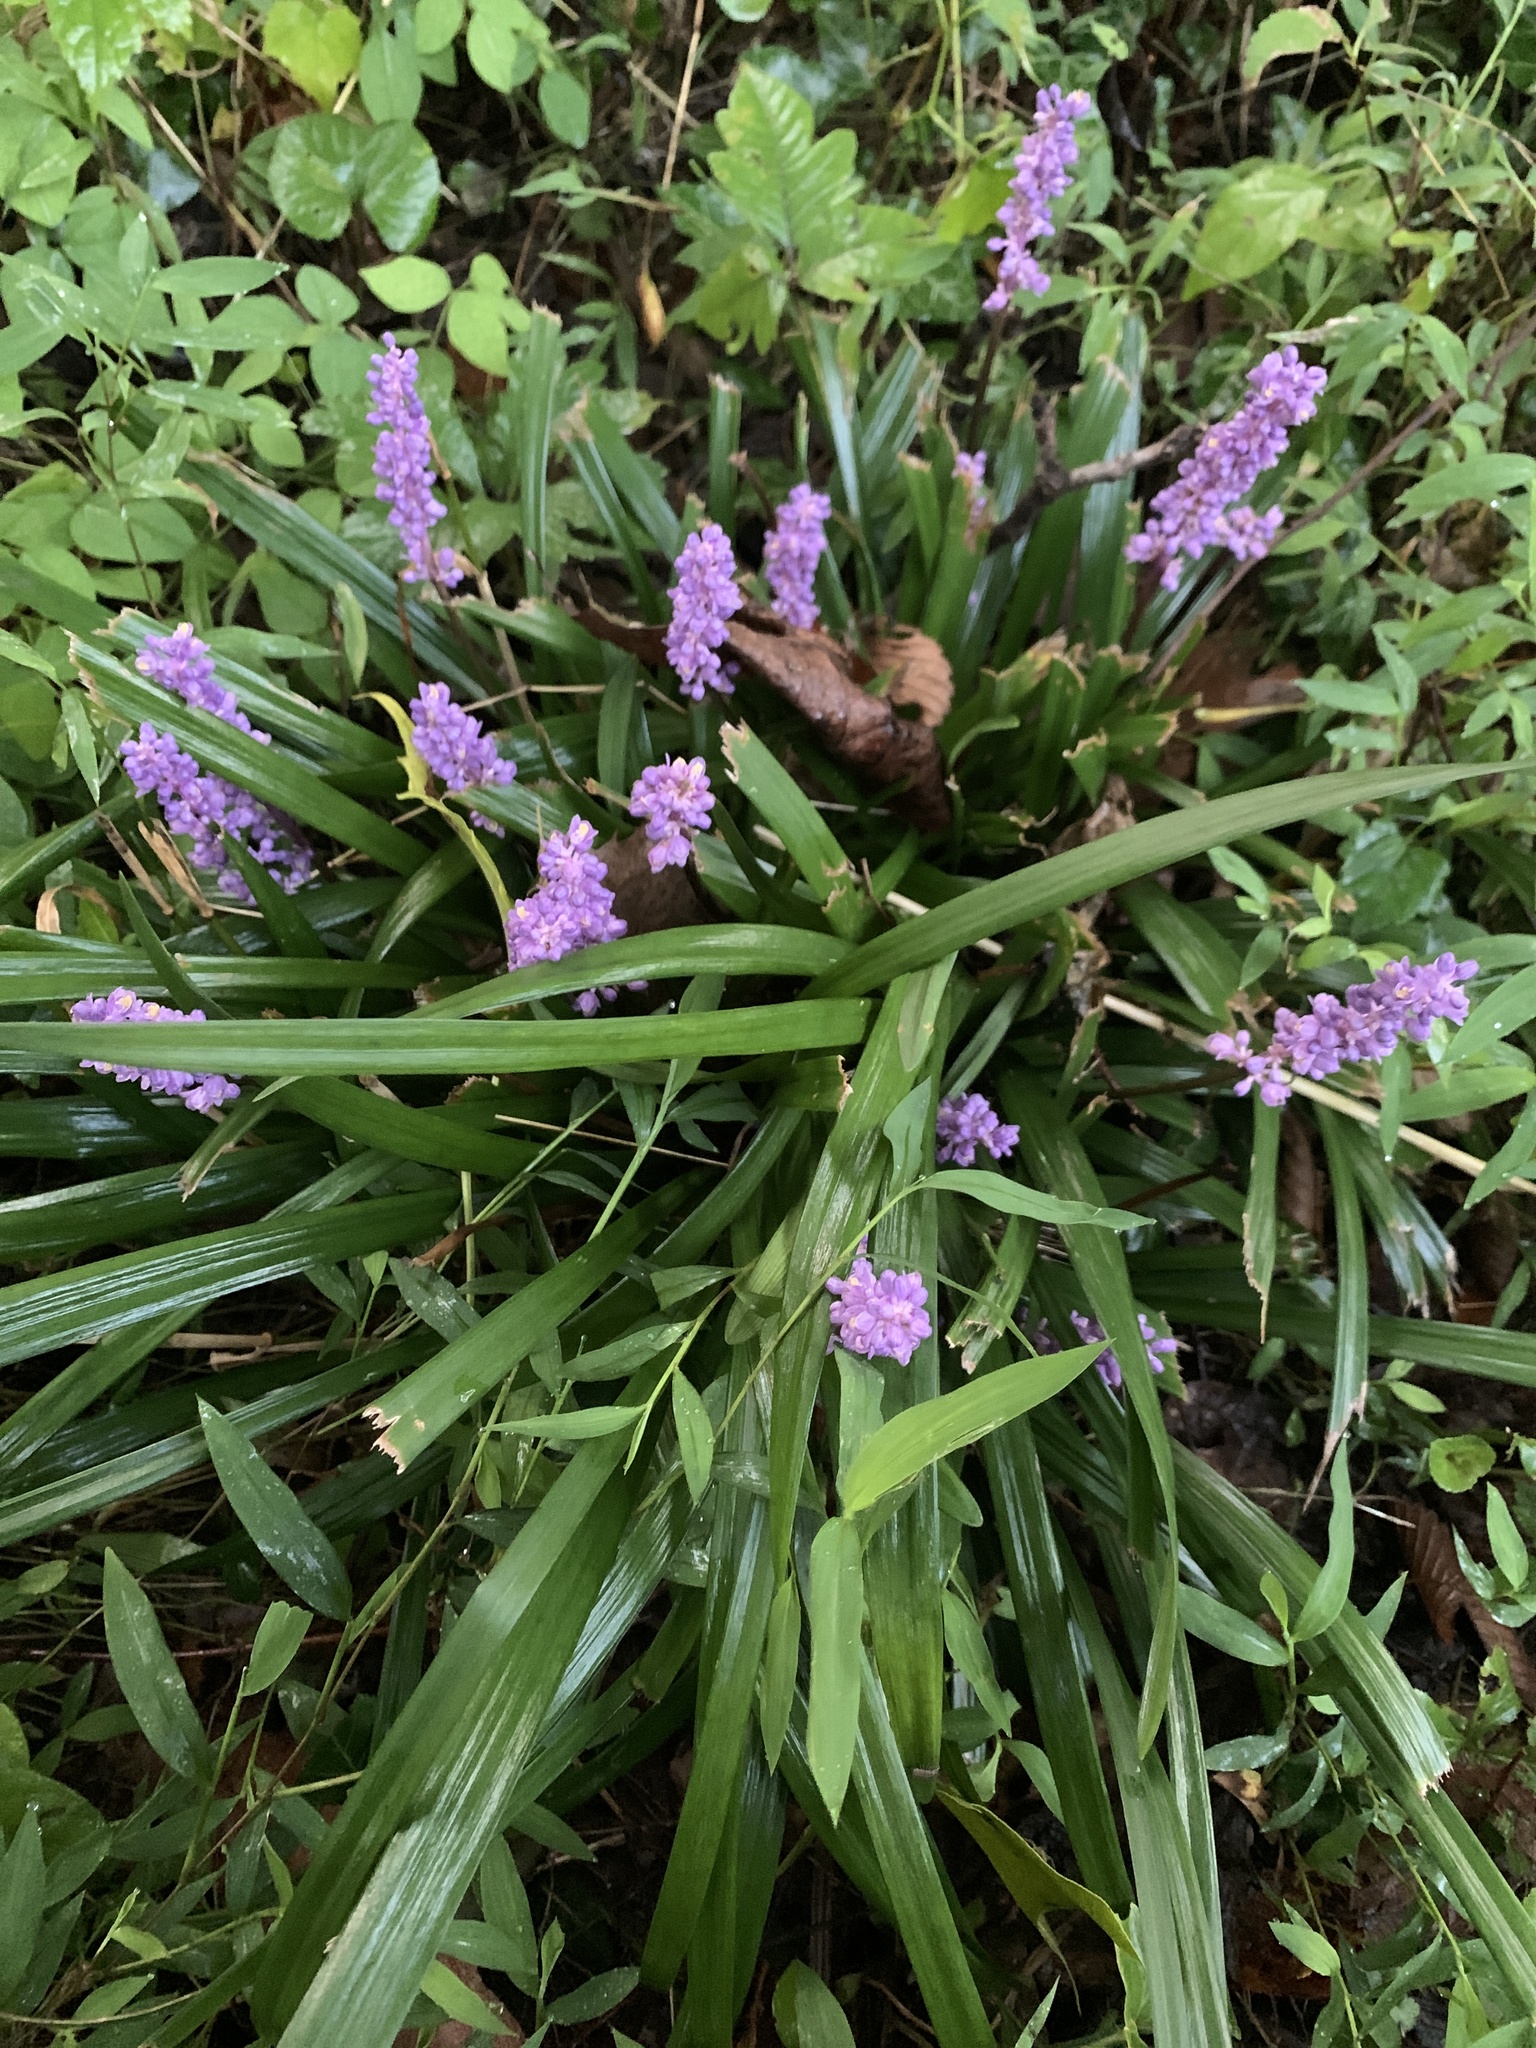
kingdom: Plantae
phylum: Tracheophyta
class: Liliopsida
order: Asparagales
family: Asparagaceae
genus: Liriope
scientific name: Liriope muscari
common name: Big blue lilyturf
